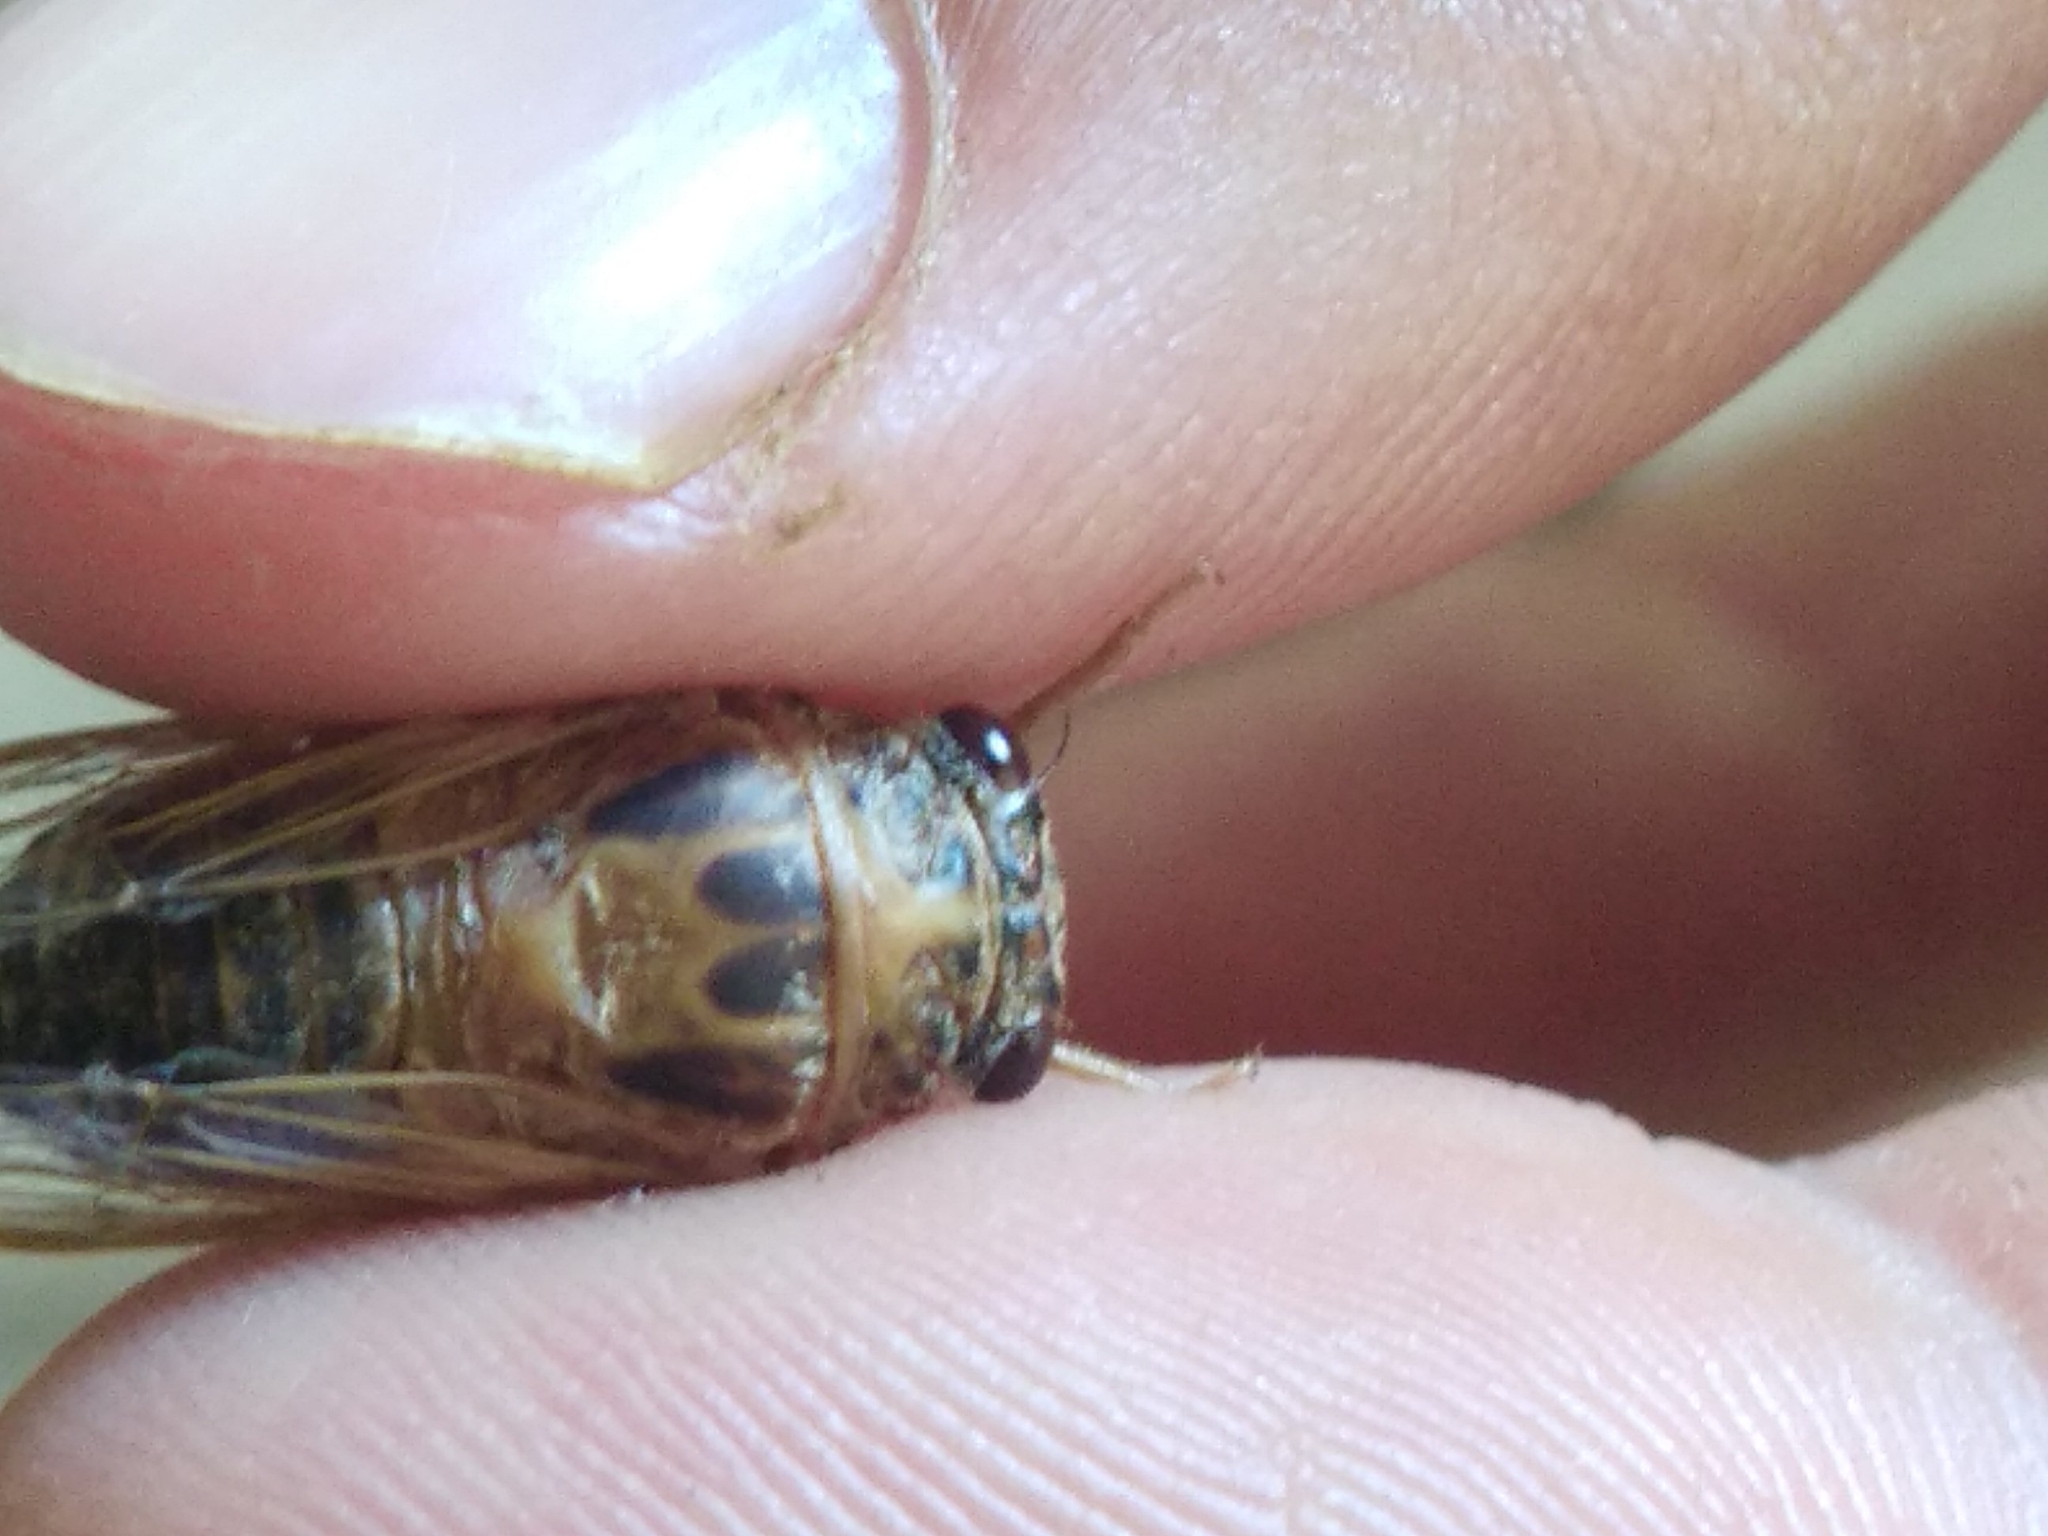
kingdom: Animalia
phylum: Arthropoda
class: Insecta
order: Hemiptera
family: Cicadidae
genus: Cicadatra
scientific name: Cicadatra atra
